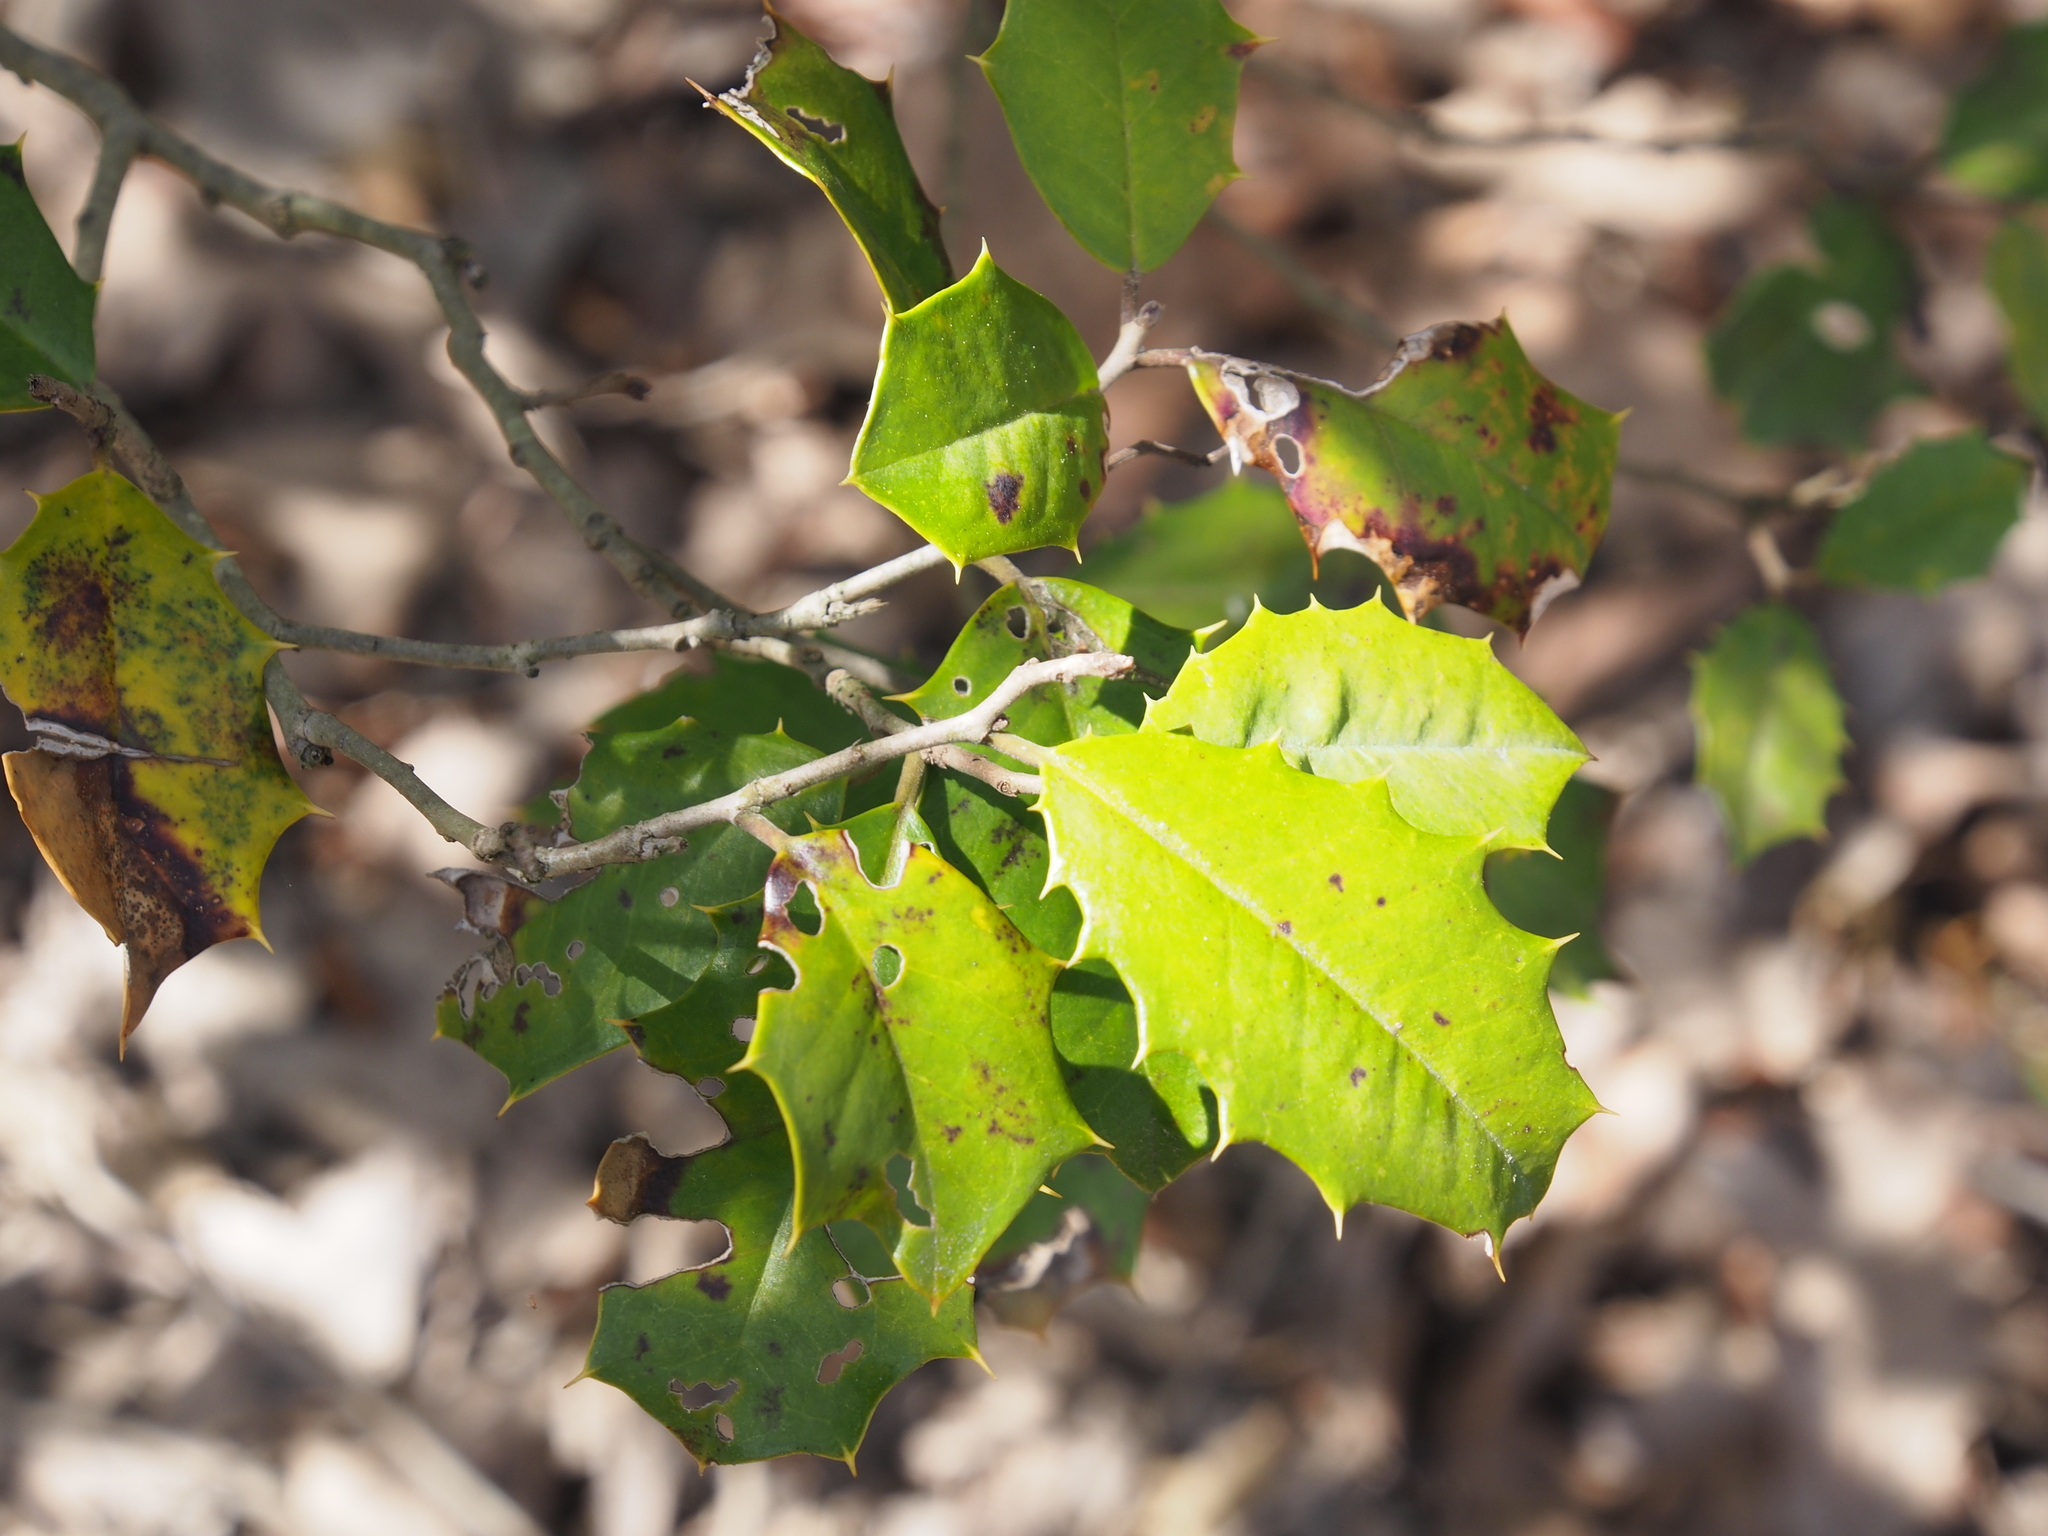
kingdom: Plantae
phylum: Tracheophyta
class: Magnoliopsida
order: Aquifoliales
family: Aquifoliaceae
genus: Ilex
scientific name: Ilex opaca
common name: American holly
